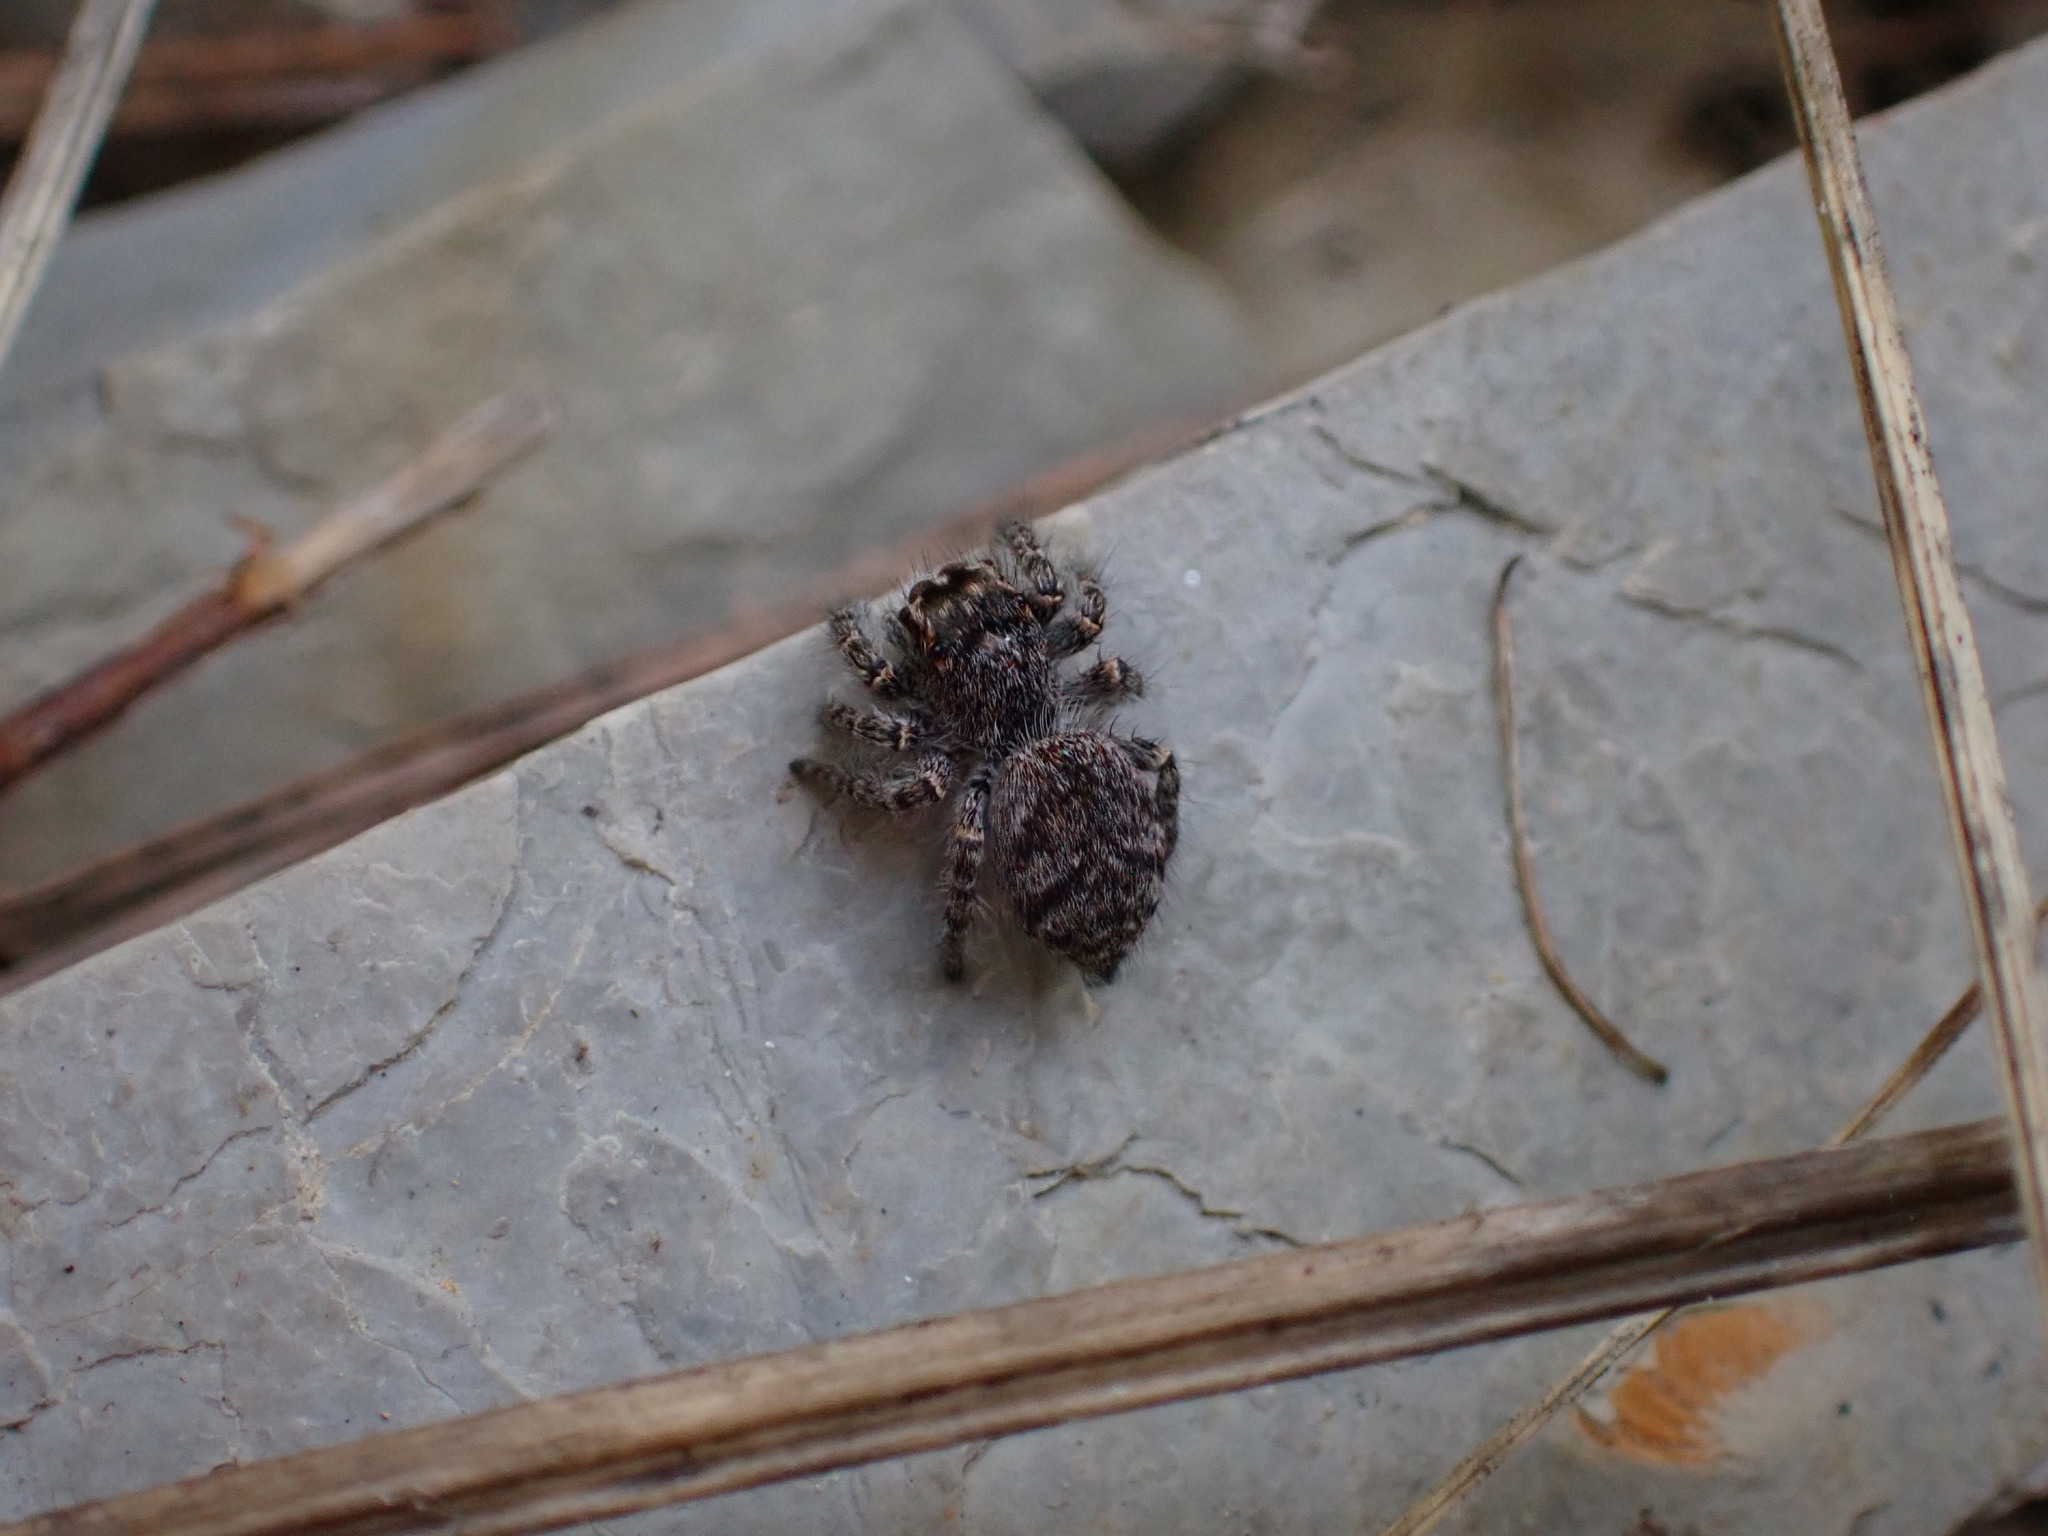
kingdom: Animalia
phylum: Arthropoda
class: Arachnida
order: Araneae
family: Salticidae
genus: Philaeus
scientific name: Philaeus chrysops
